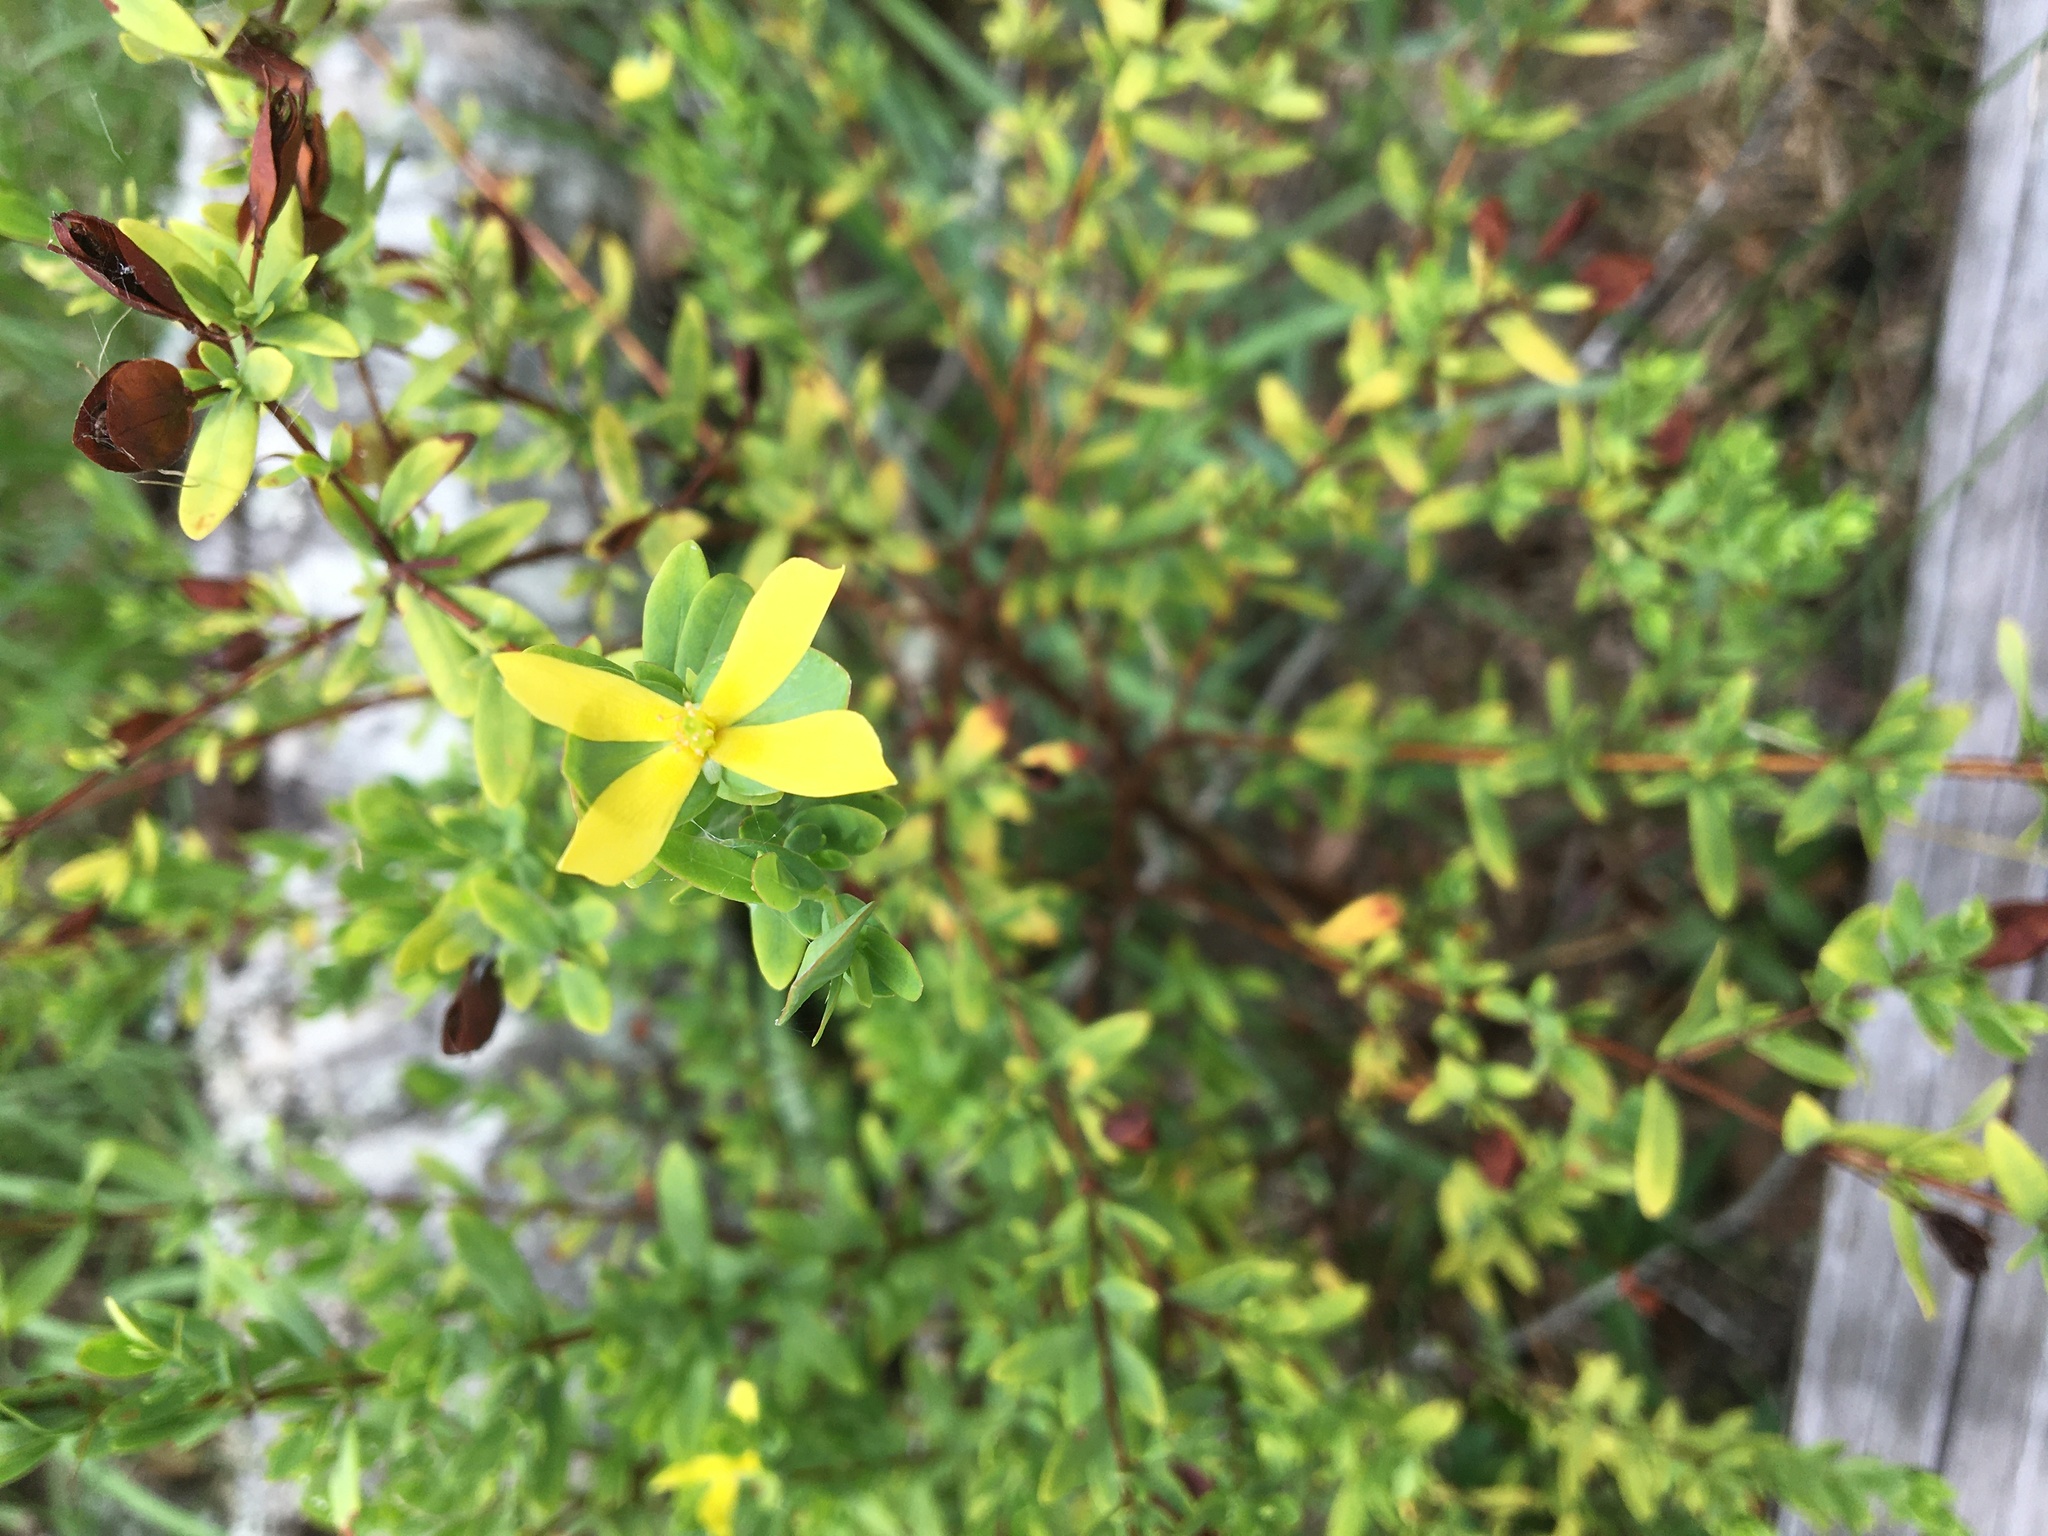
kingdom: Plantae
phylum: Tracheophyta
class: Magnoliopsida
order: Malpighiales
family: Hypericaceae
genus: Hypericum
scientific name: Hypericum hypericoides
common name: St. andrew's cross
